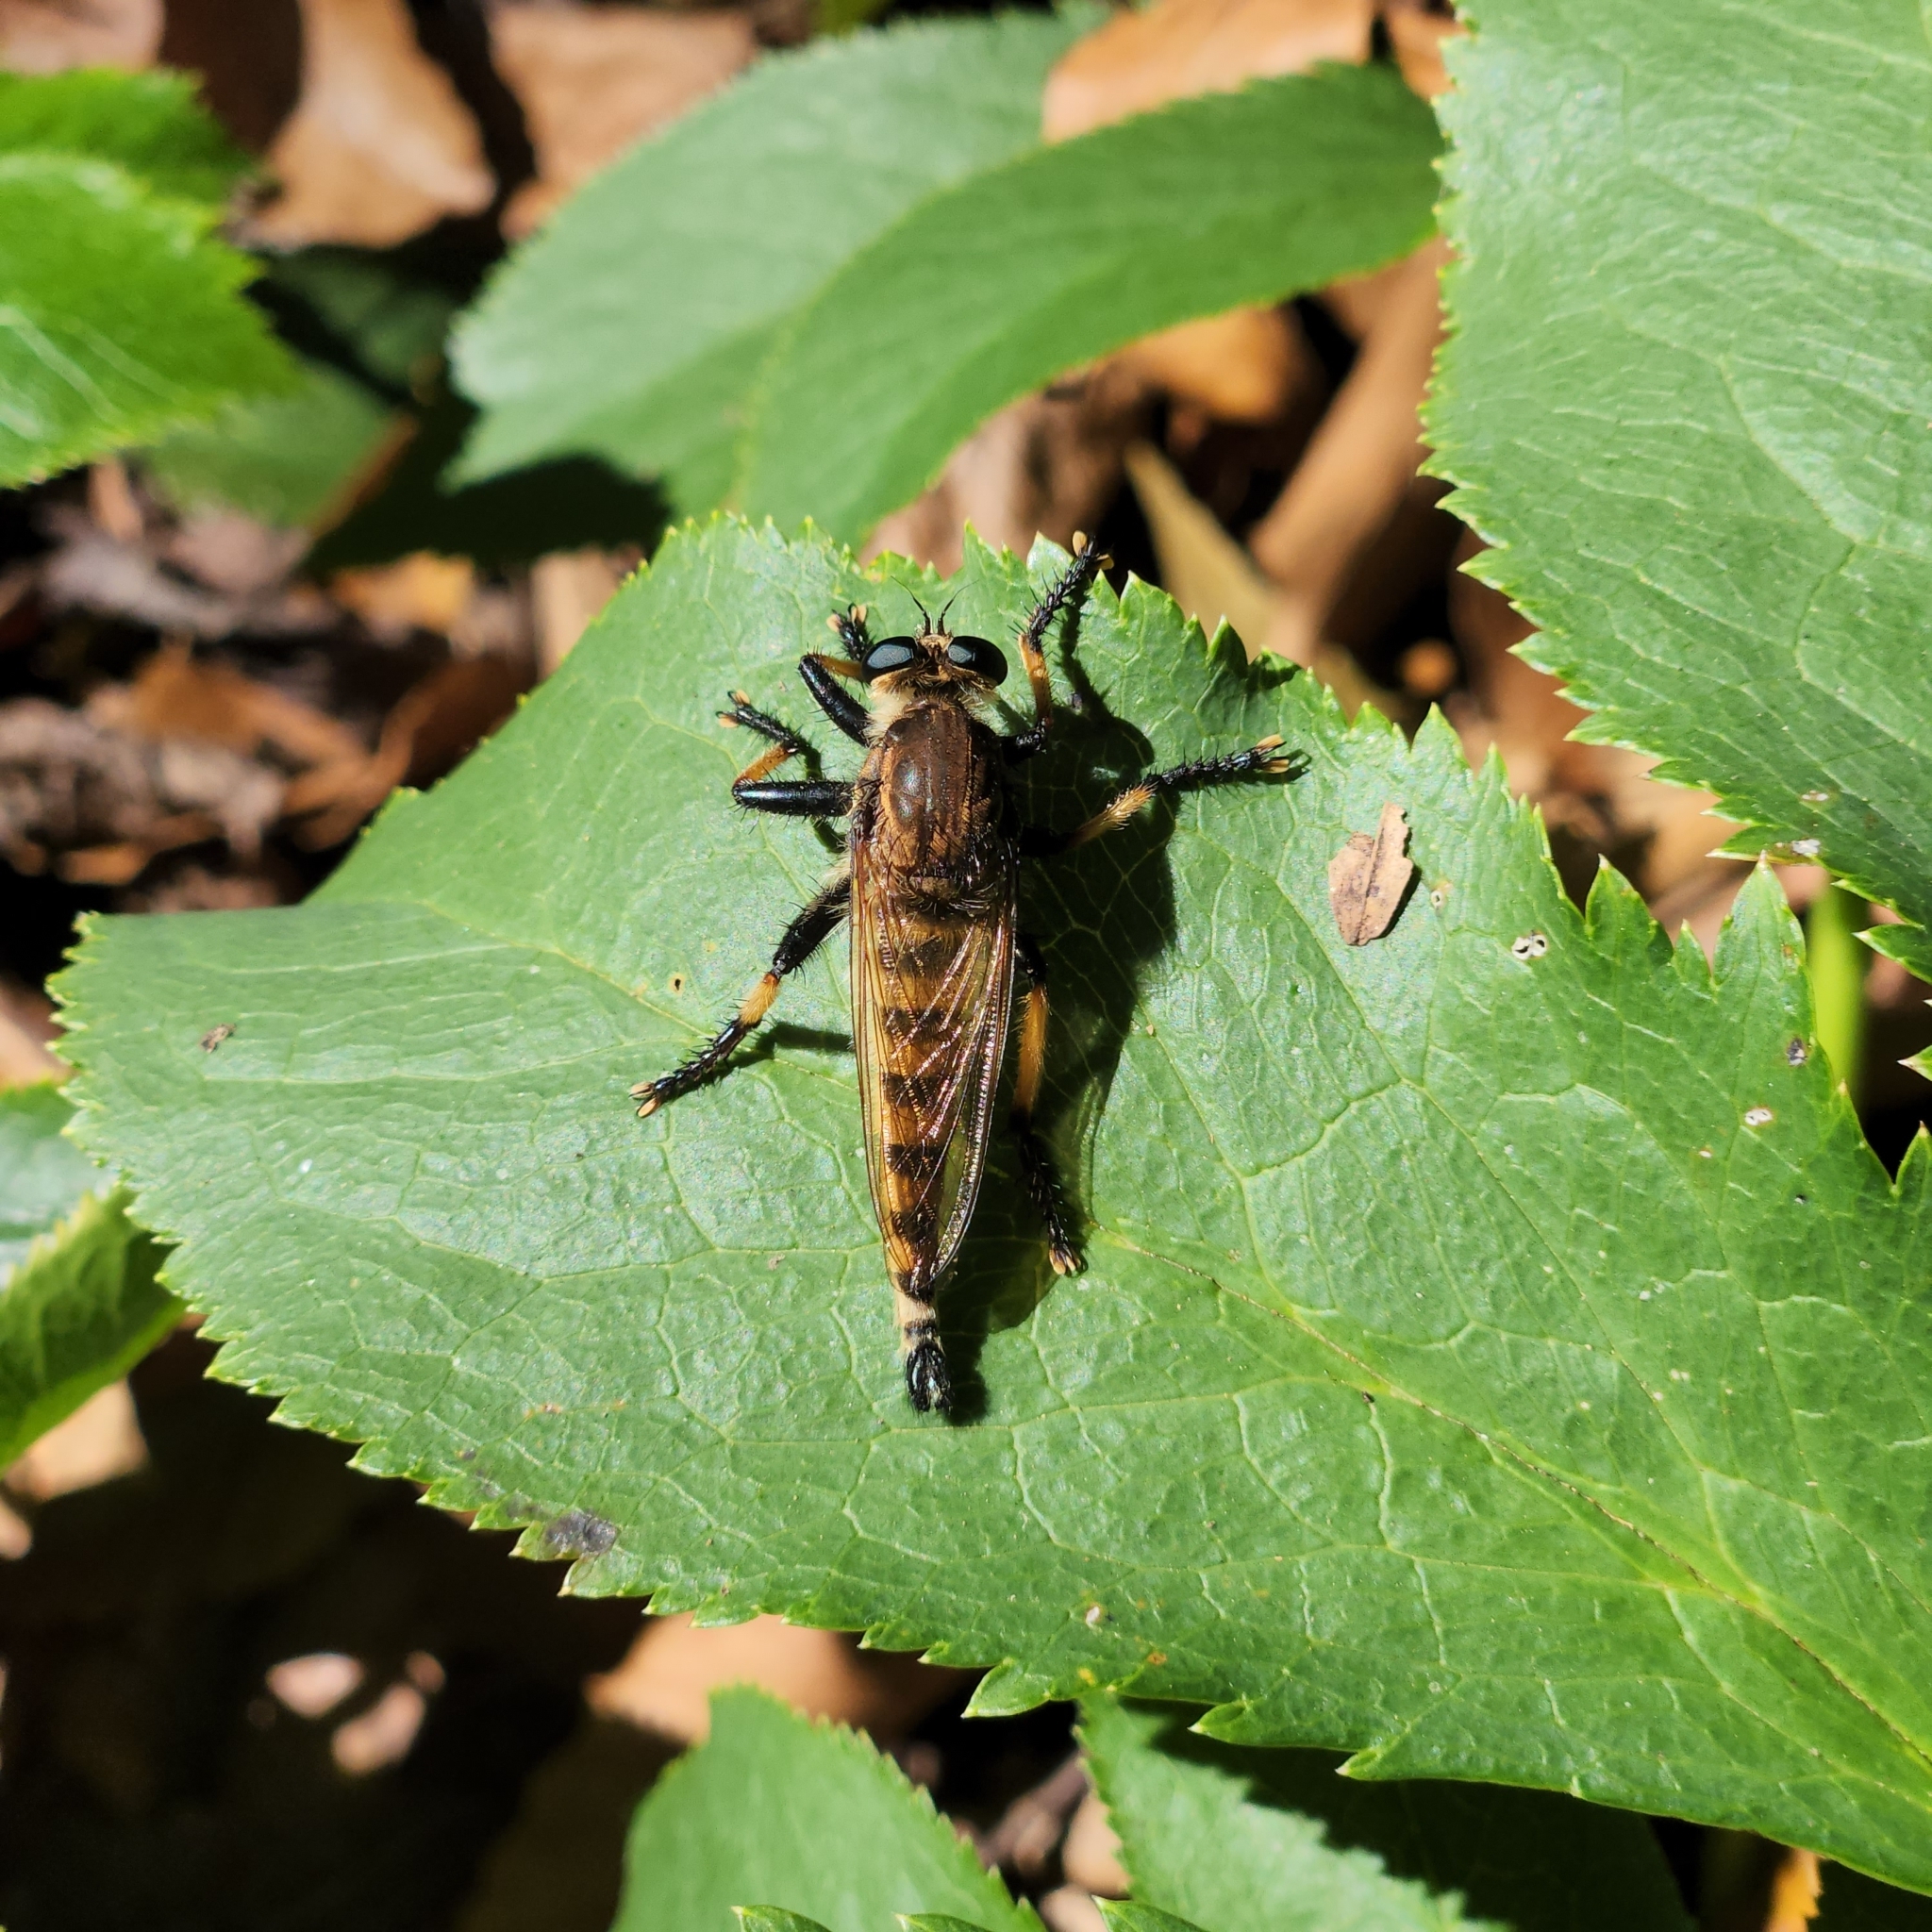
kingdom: Animalia
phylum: Arthropoda
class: Insecta
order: Diptera
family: Asilidae
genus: Promachus
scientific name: Promachus rufipes
